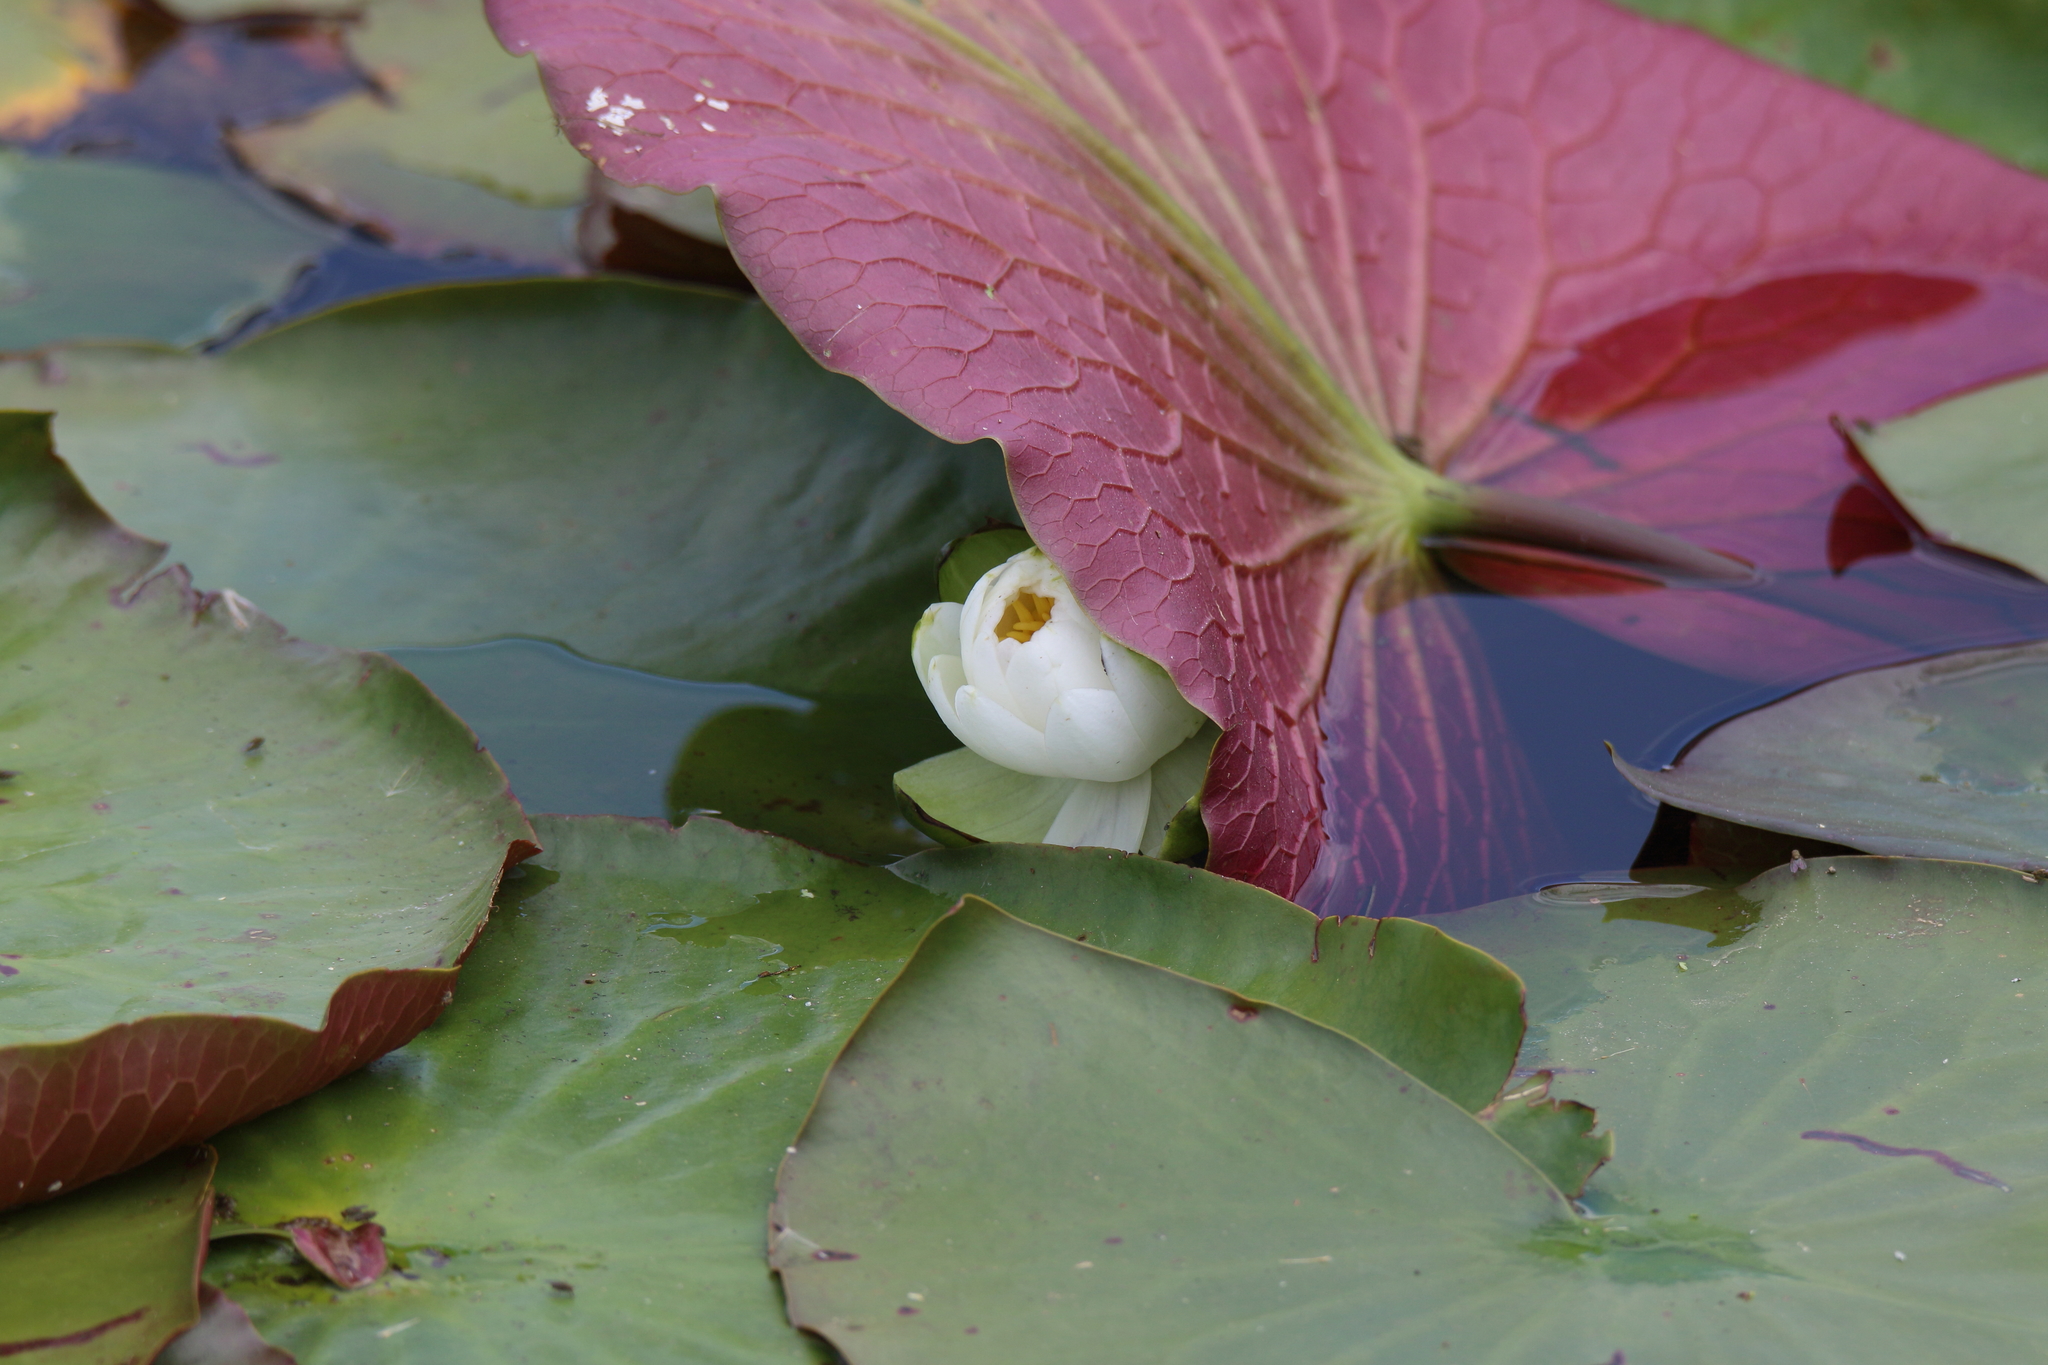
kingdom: Plantae
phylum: Tracheophyta
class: Magnoliopsida
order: Nymphaeales
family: Nymphaeaceae
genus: Nymphaea
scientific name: Nymphaea odorata
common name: Fragrant water-lily
